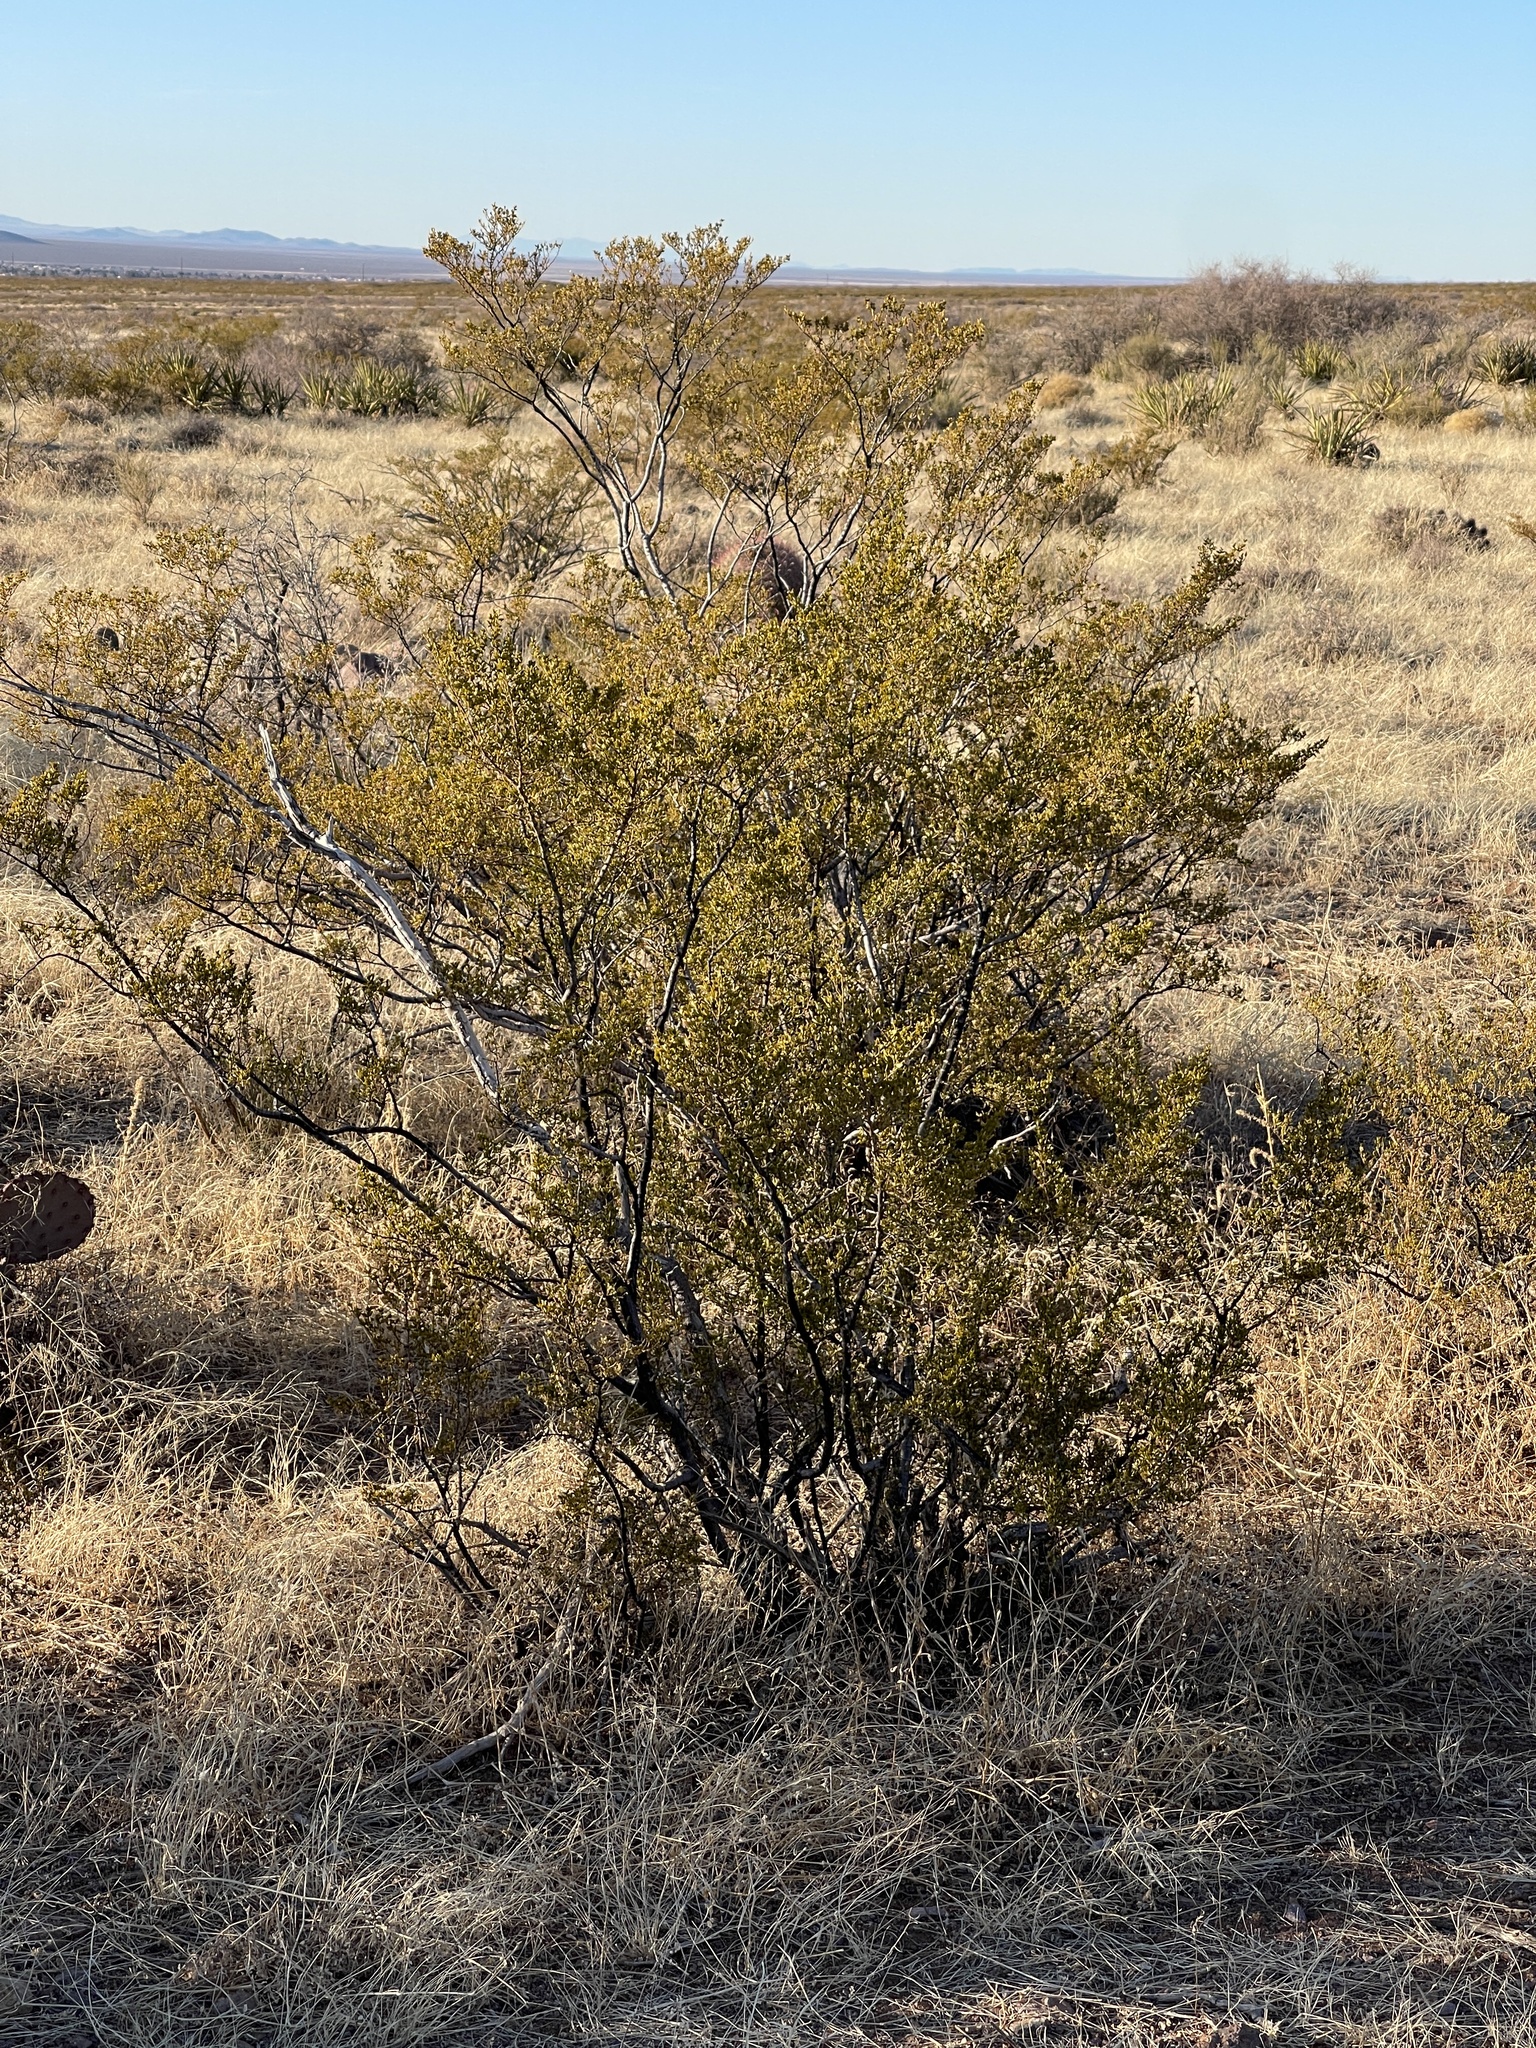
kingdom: Plantae
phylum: Tracheophyta
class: Magnoliopsida
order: Zygophyllales
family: Zygophyllaceae
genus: Larrea
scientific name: Larrea tridentata
